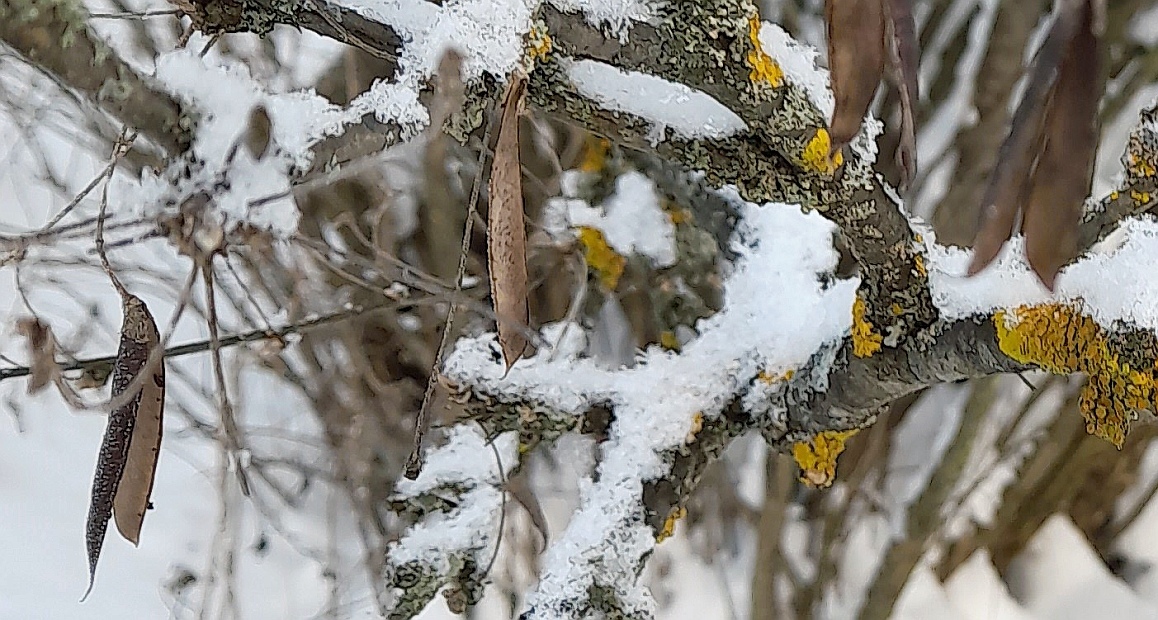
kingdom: Plantae
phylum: Tracheophyta
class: Magnoliopsida
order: Fabales
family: Fabaceae
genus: Caragana
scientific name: Caragana arborescens
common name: Siberian peashrub
